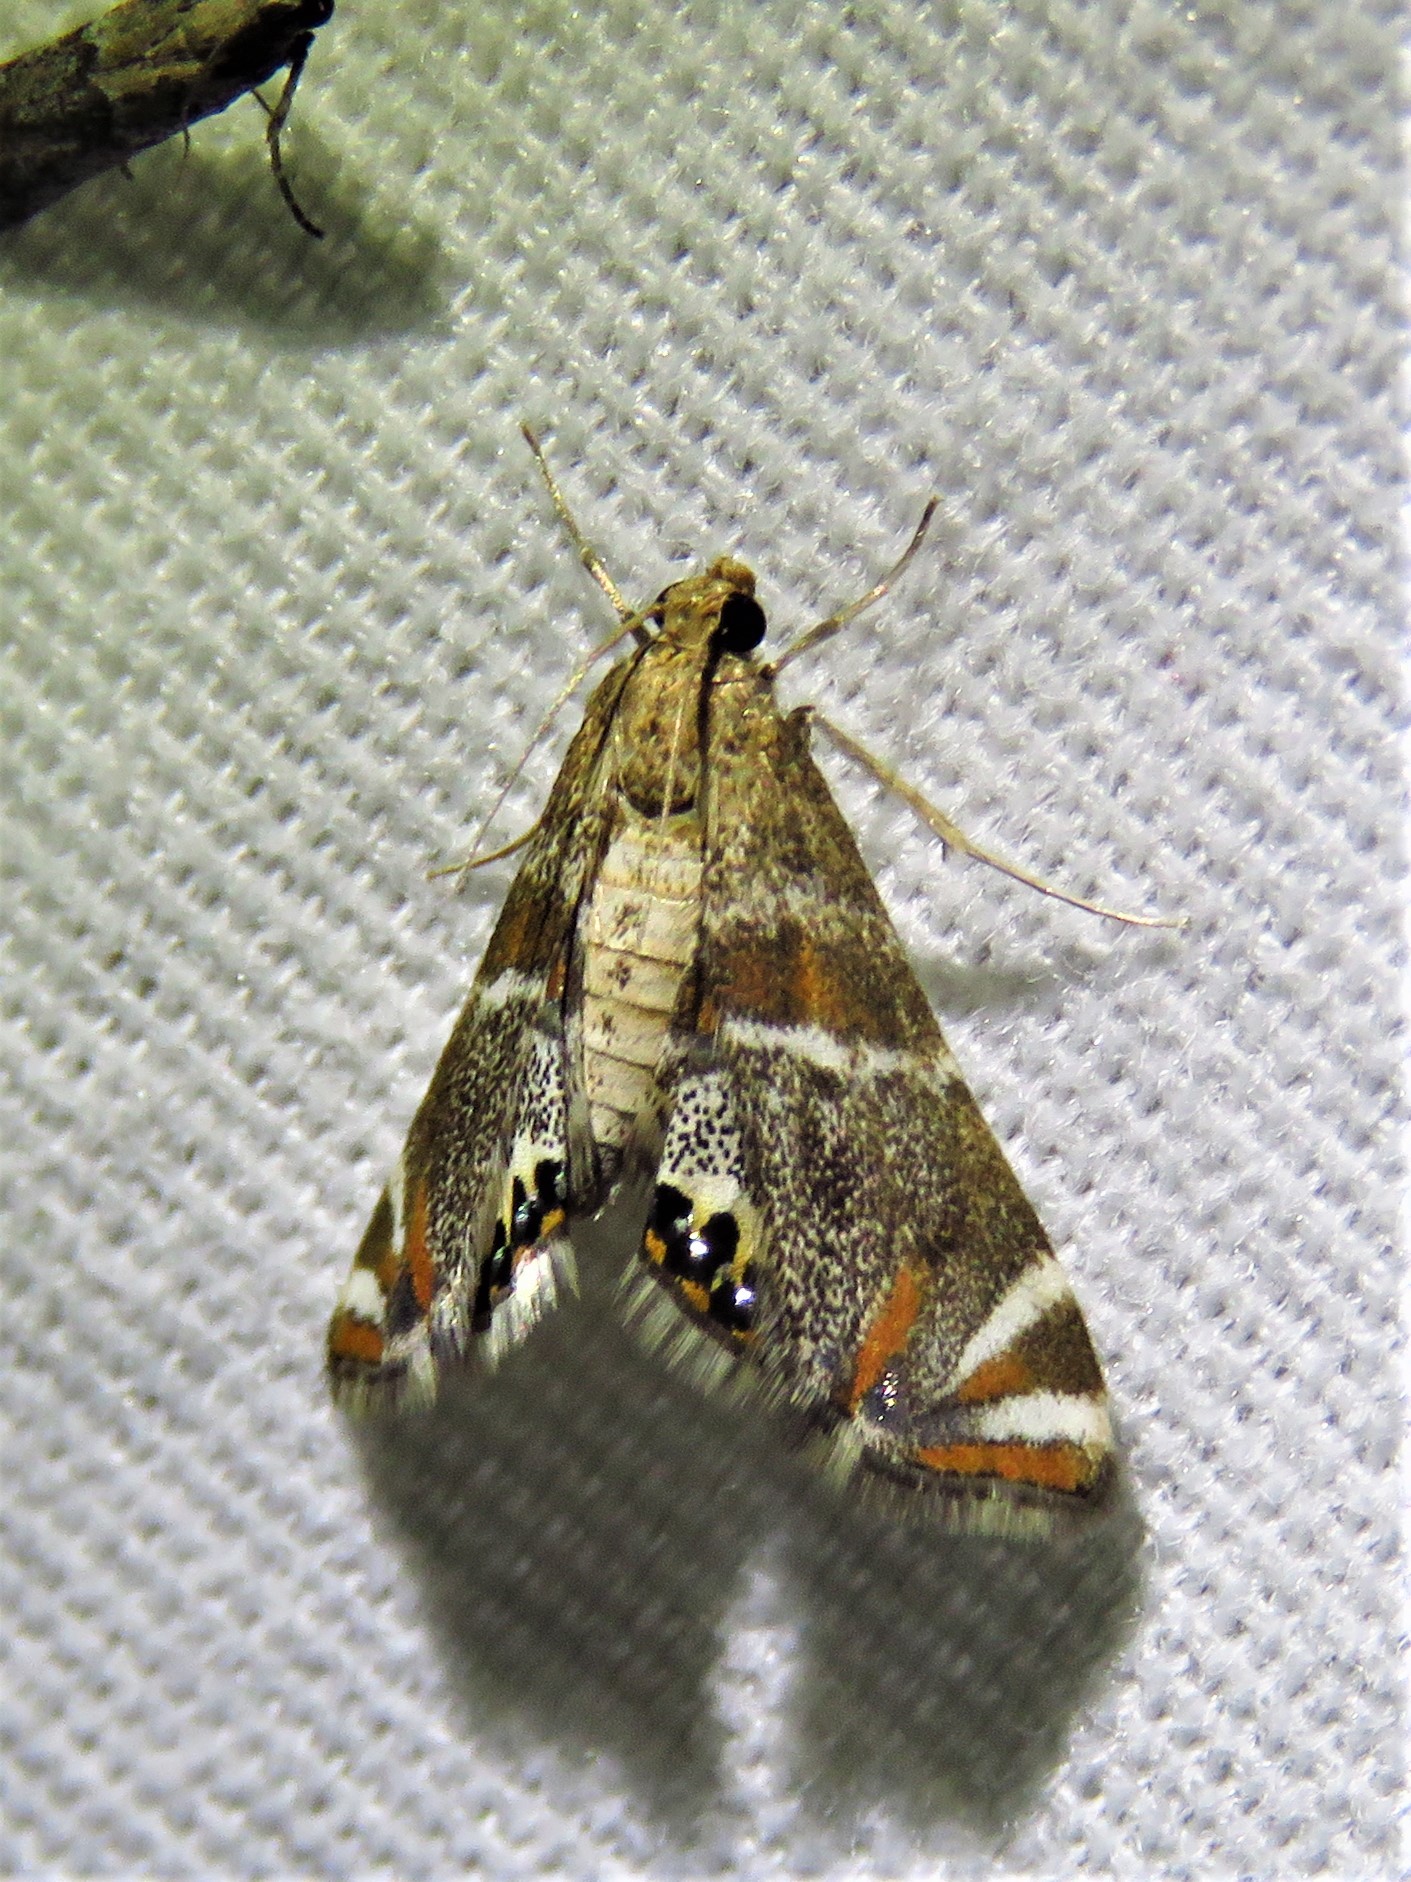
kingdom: Animalia
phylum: Arthropoda
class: Insecta
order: Lepidoptera
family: Crambidae
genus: Petrophila
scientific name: Petrophila jaliscalis
